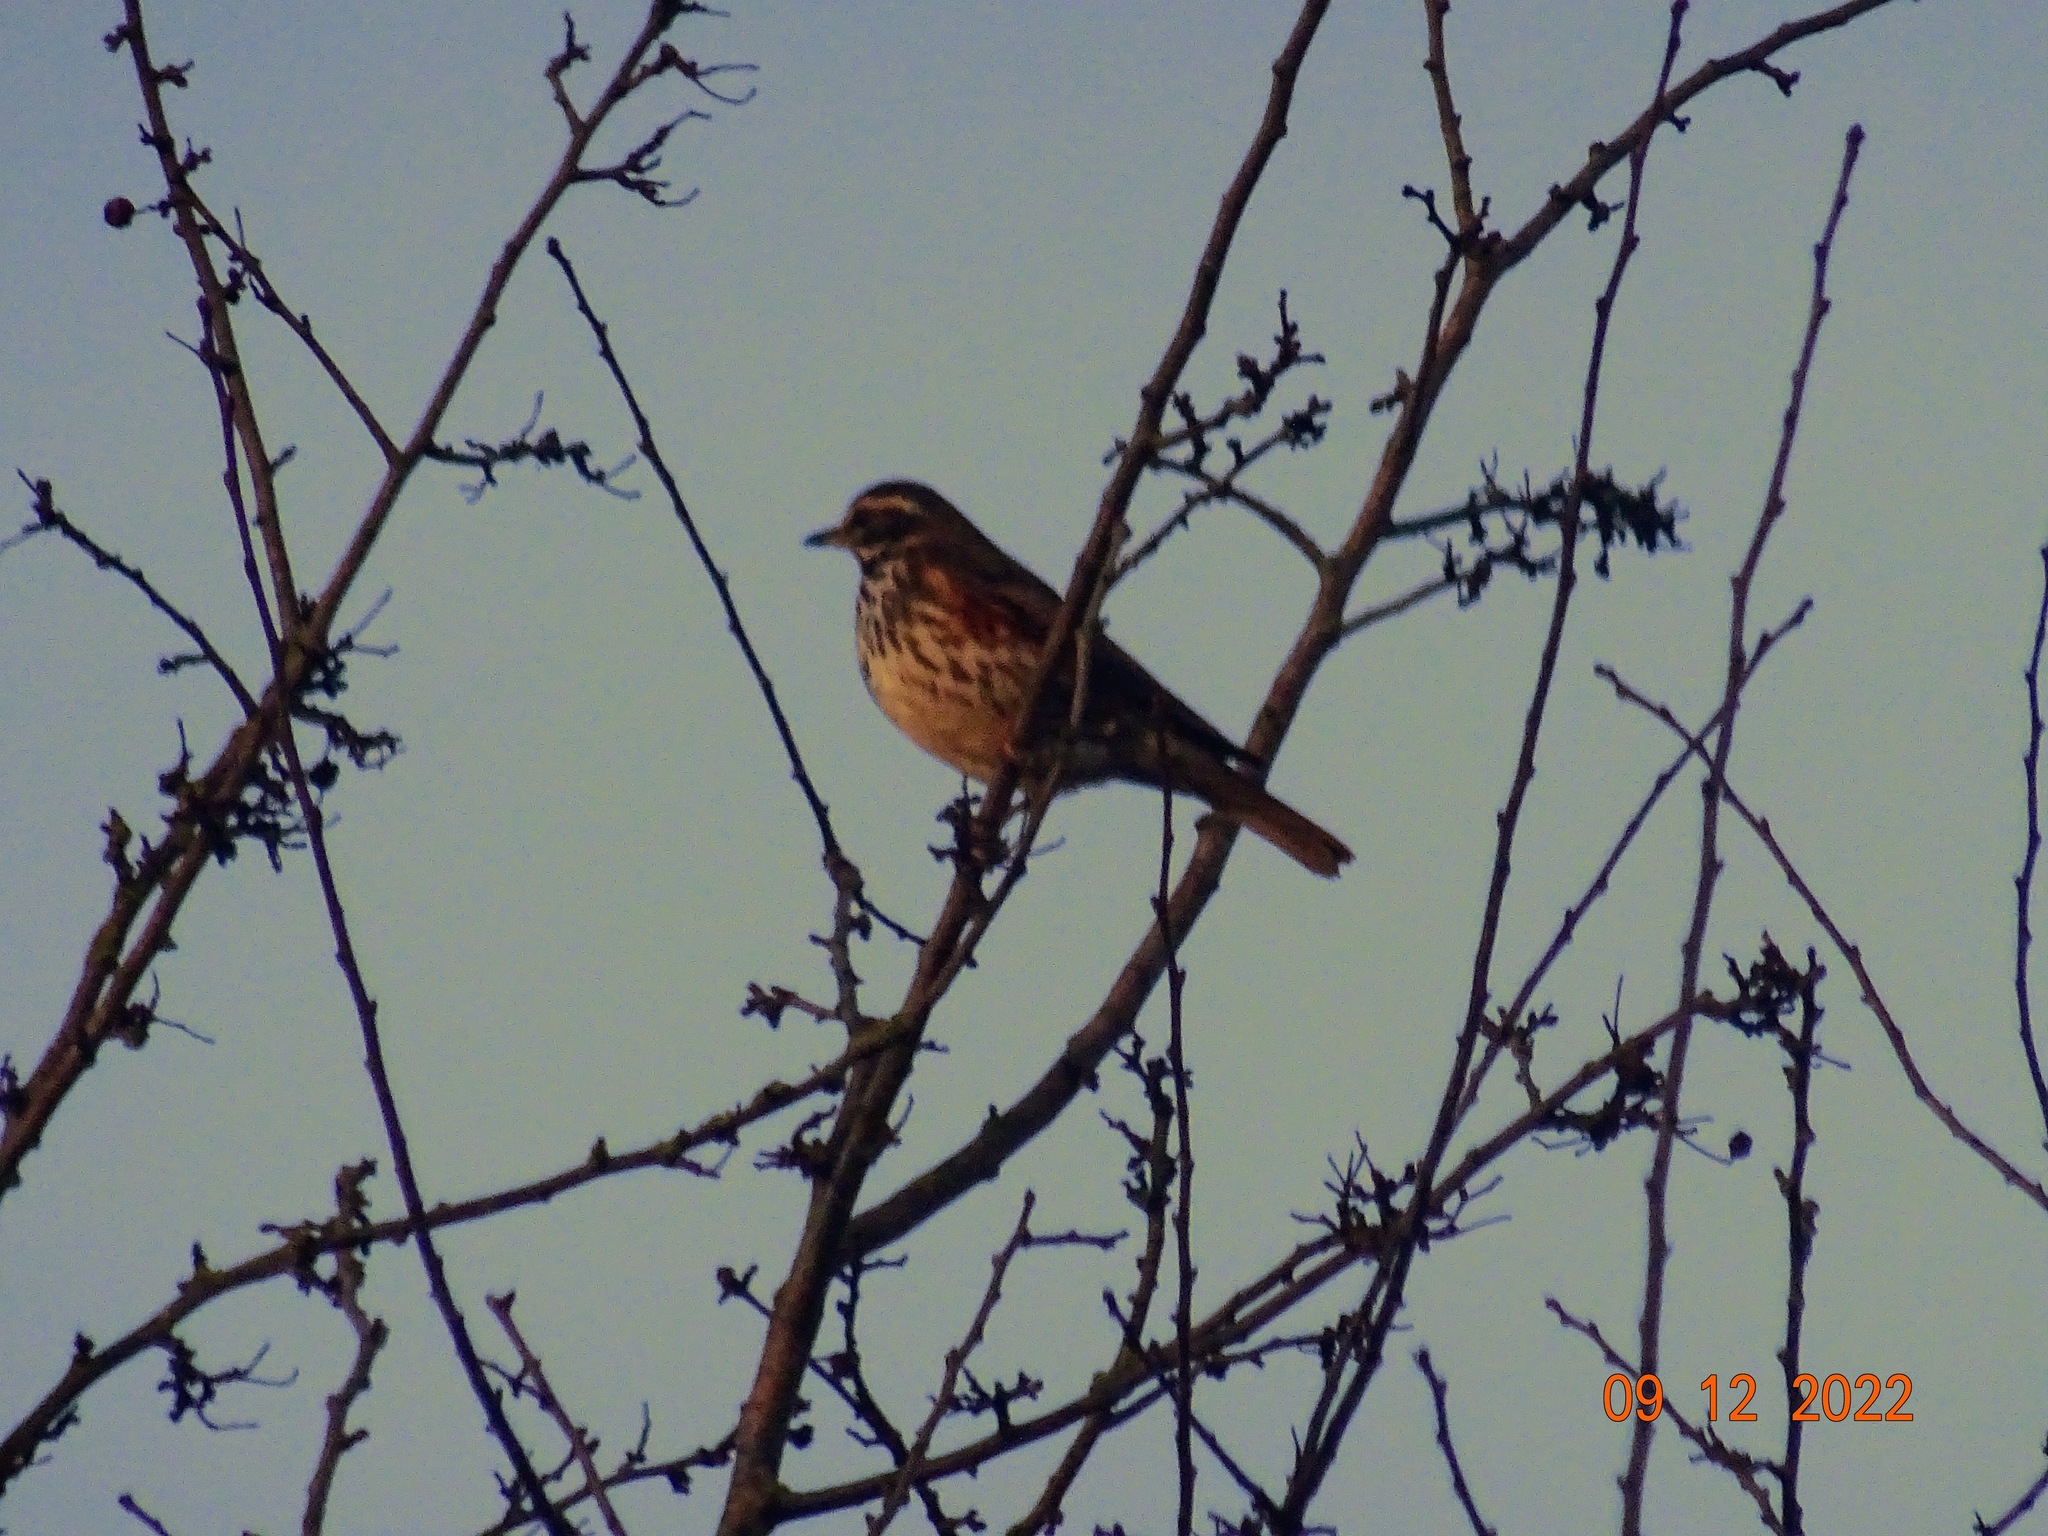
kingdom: Animalia
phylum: Chordata
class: Aves
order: Passeriformes
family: Turdidae
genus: Turdus
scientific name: Turdus iliacus
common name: Redwing
